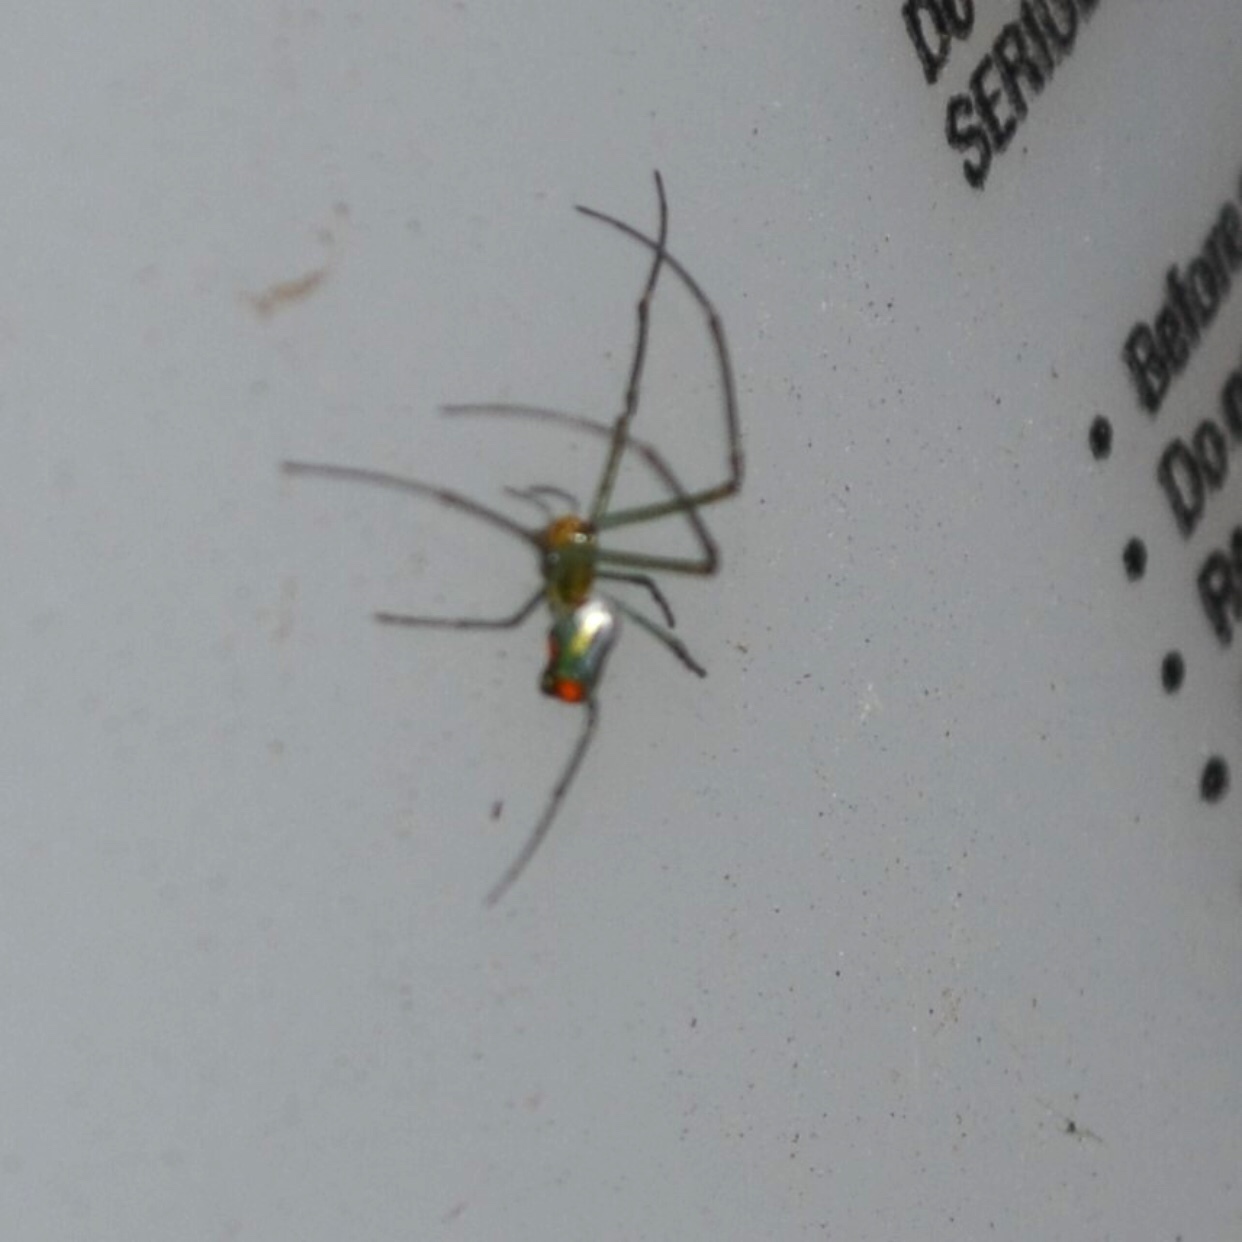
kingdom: Animalia
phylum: Arthropoda
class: Arachnida
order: Araneae
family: Tetragnathidae
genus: Leucauge
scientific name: Leucauge argyrobapta
